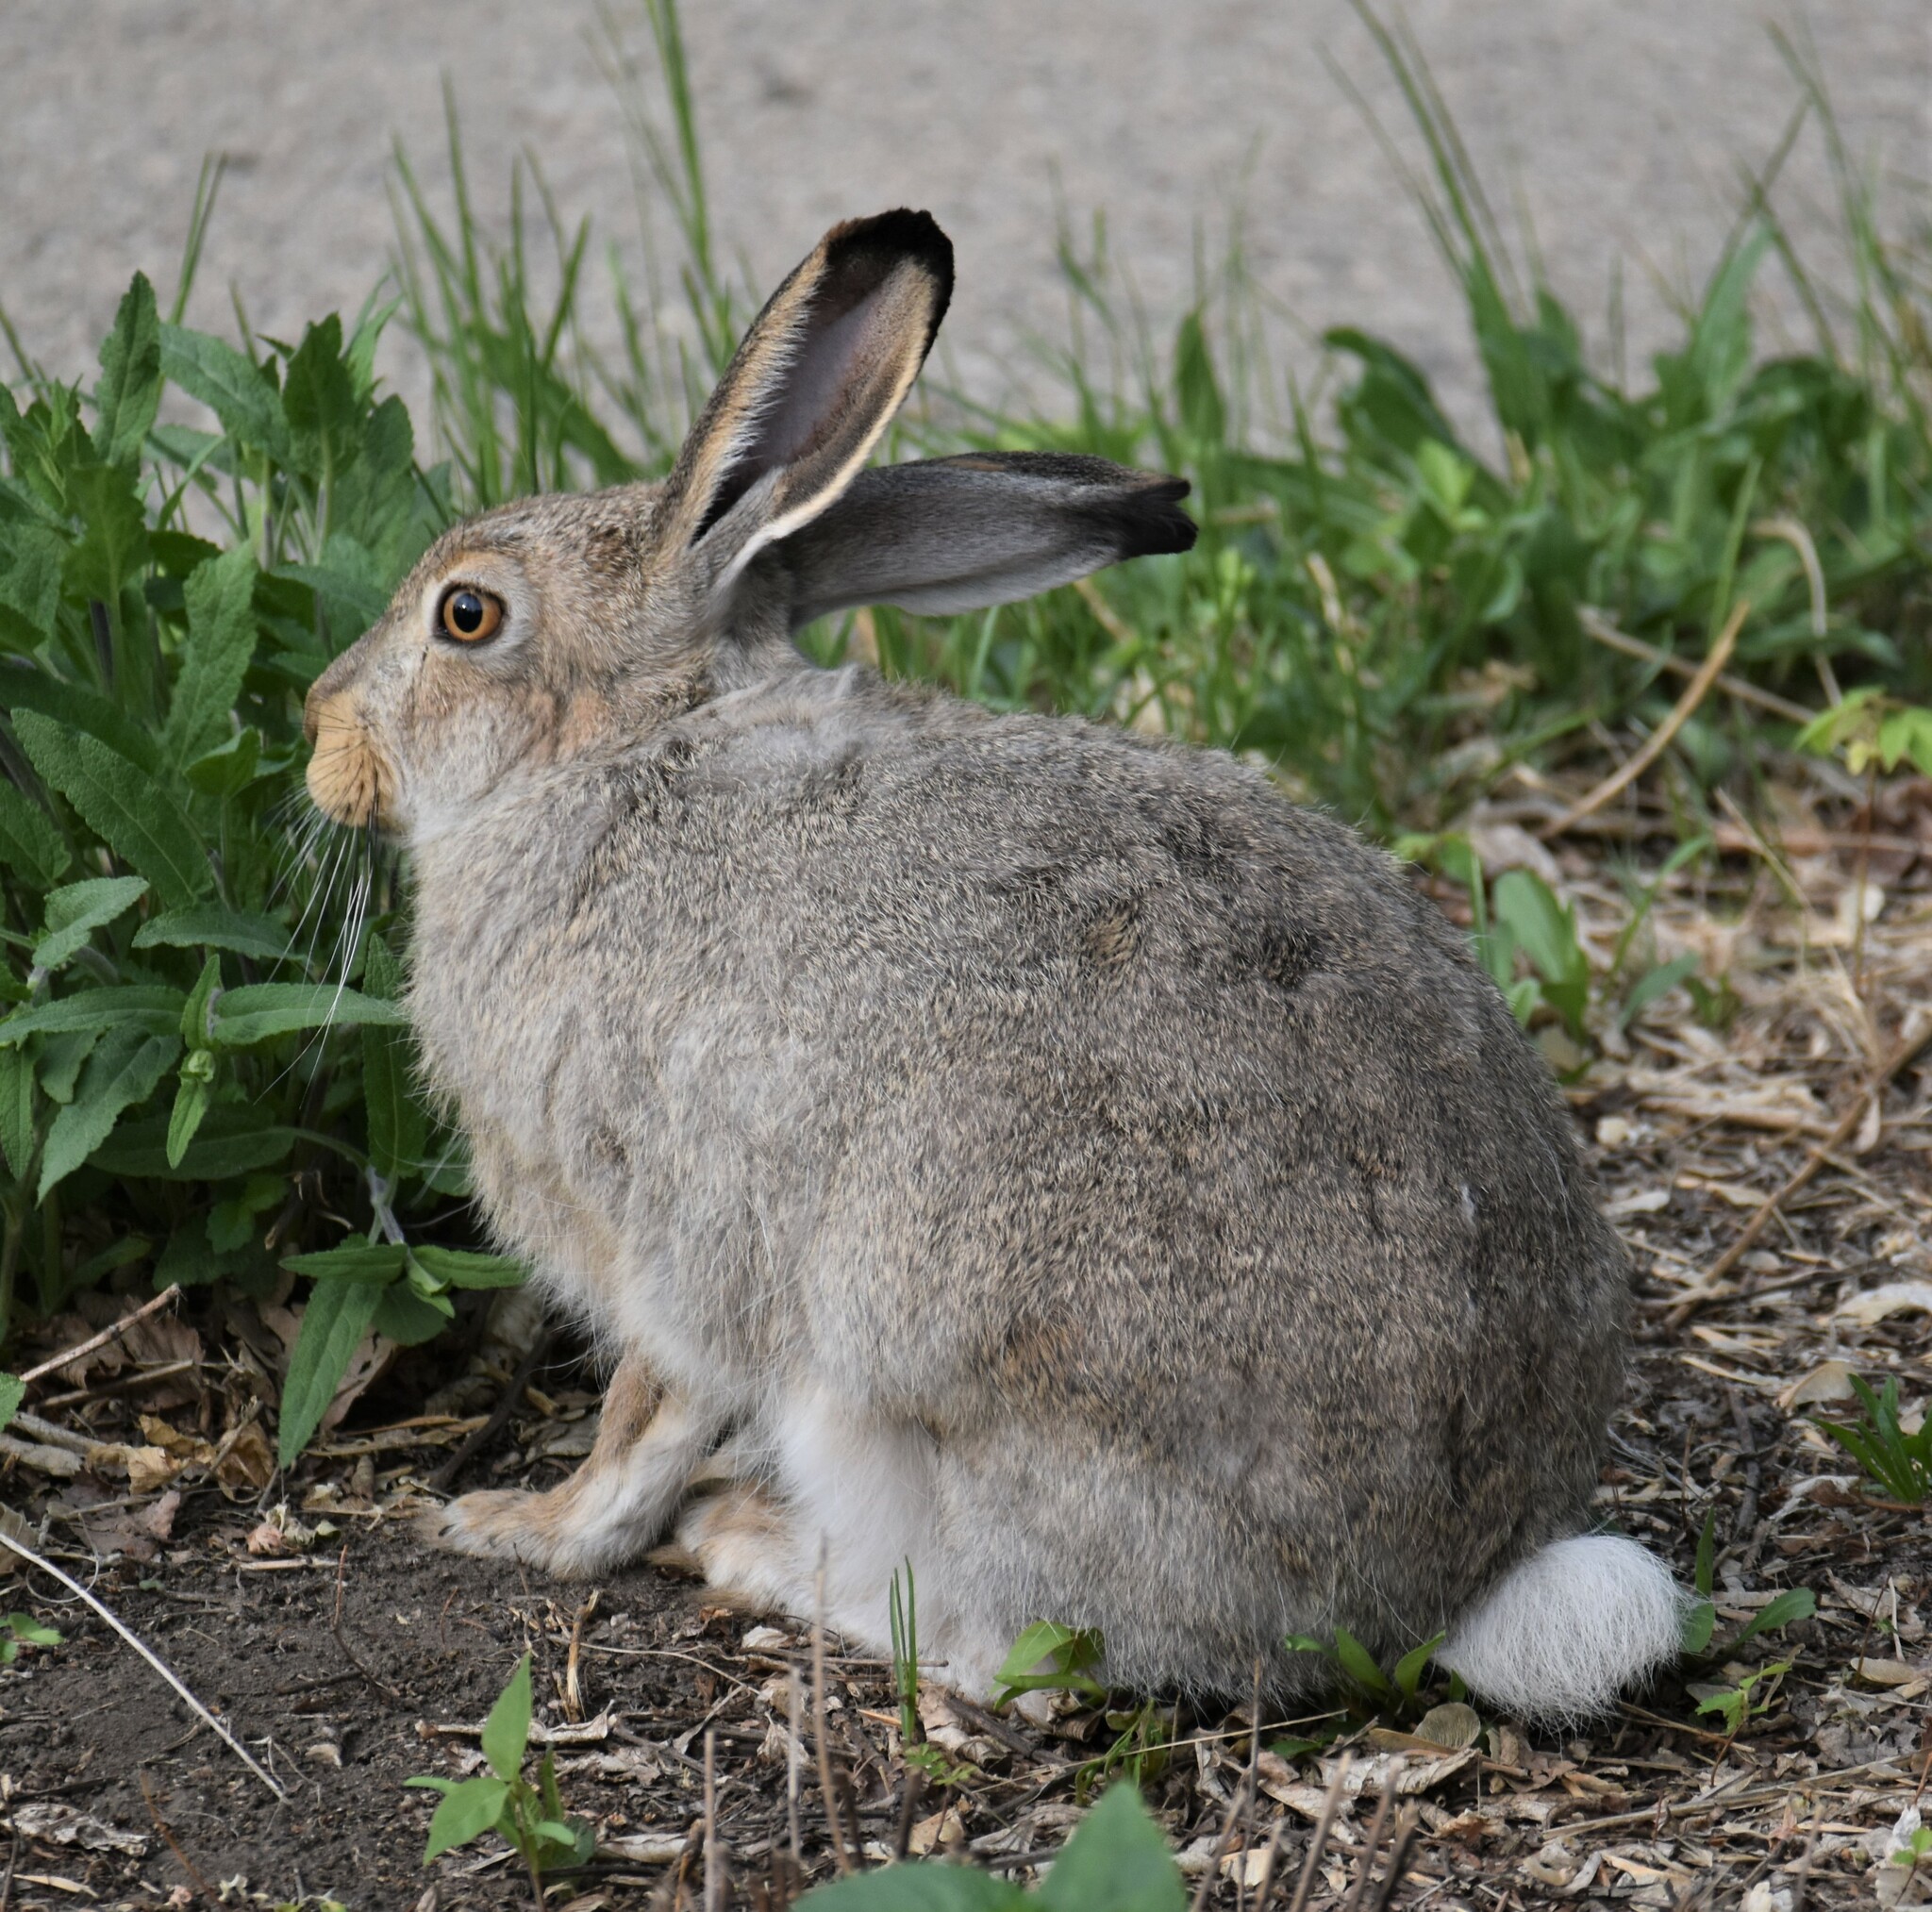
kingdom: Animalia
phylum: Chordata
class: Mammalia
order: Lagomorpha
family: Leporidae
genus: Lepus
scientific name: Lepus townsendii
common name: White-tailed jackrabbit
